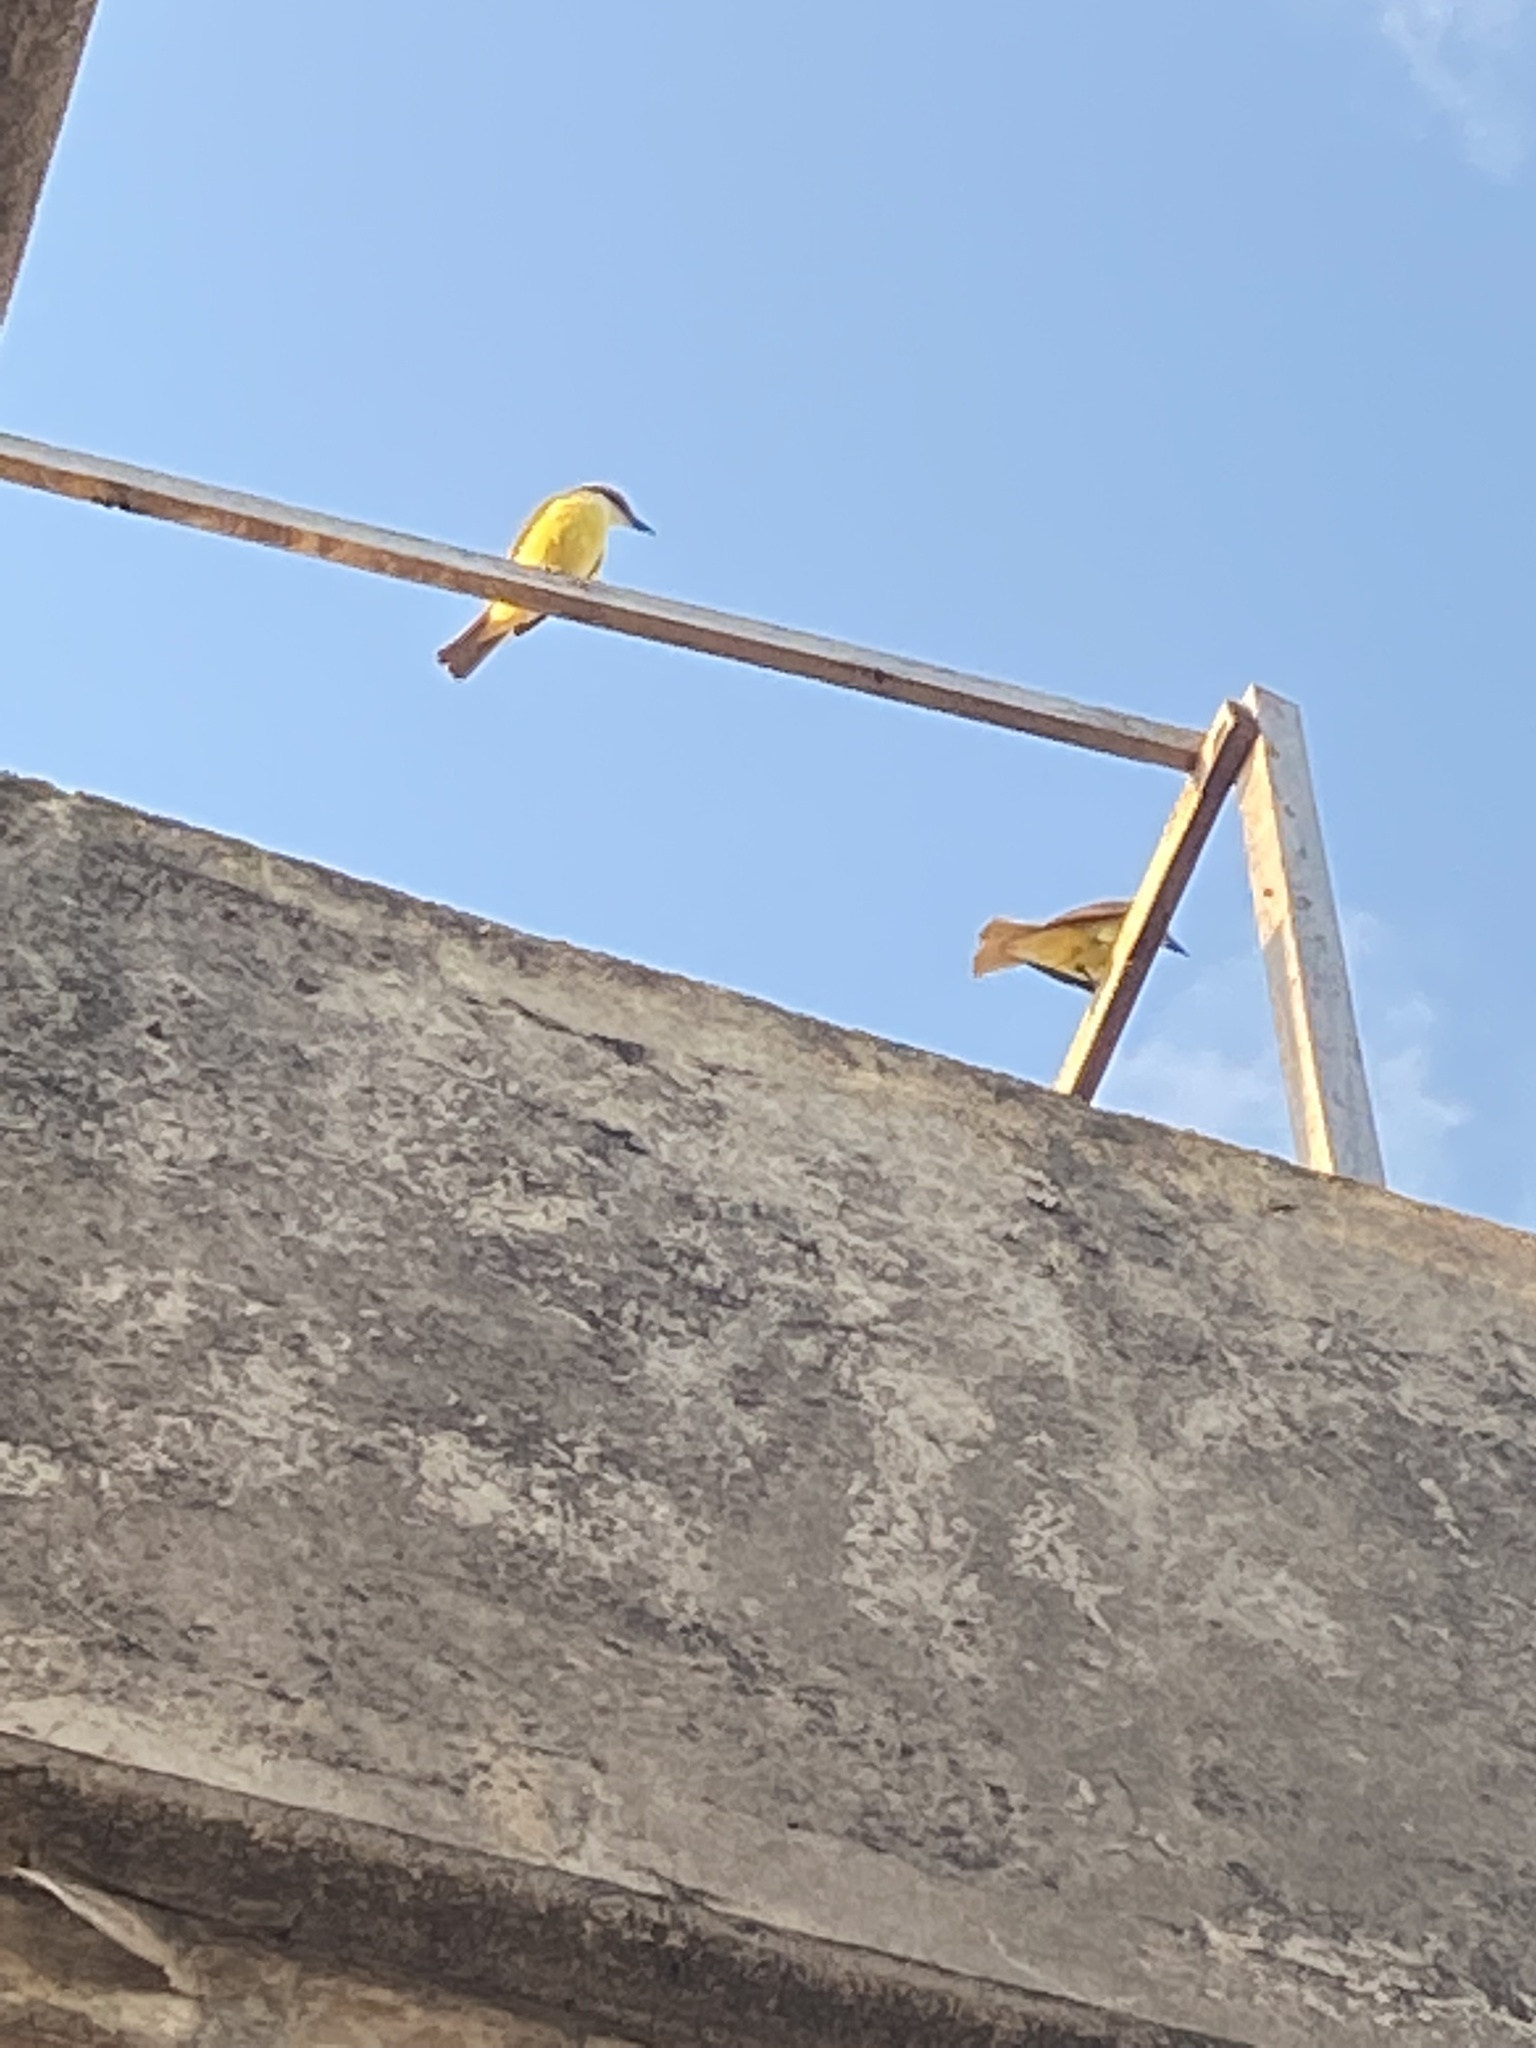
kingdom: Animalia
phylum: Chordata
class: Aves
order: Passeriformes
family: Tyrannidae
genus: Pitangus
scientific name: Pitangus sulphuratus
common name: Great kiskadee
